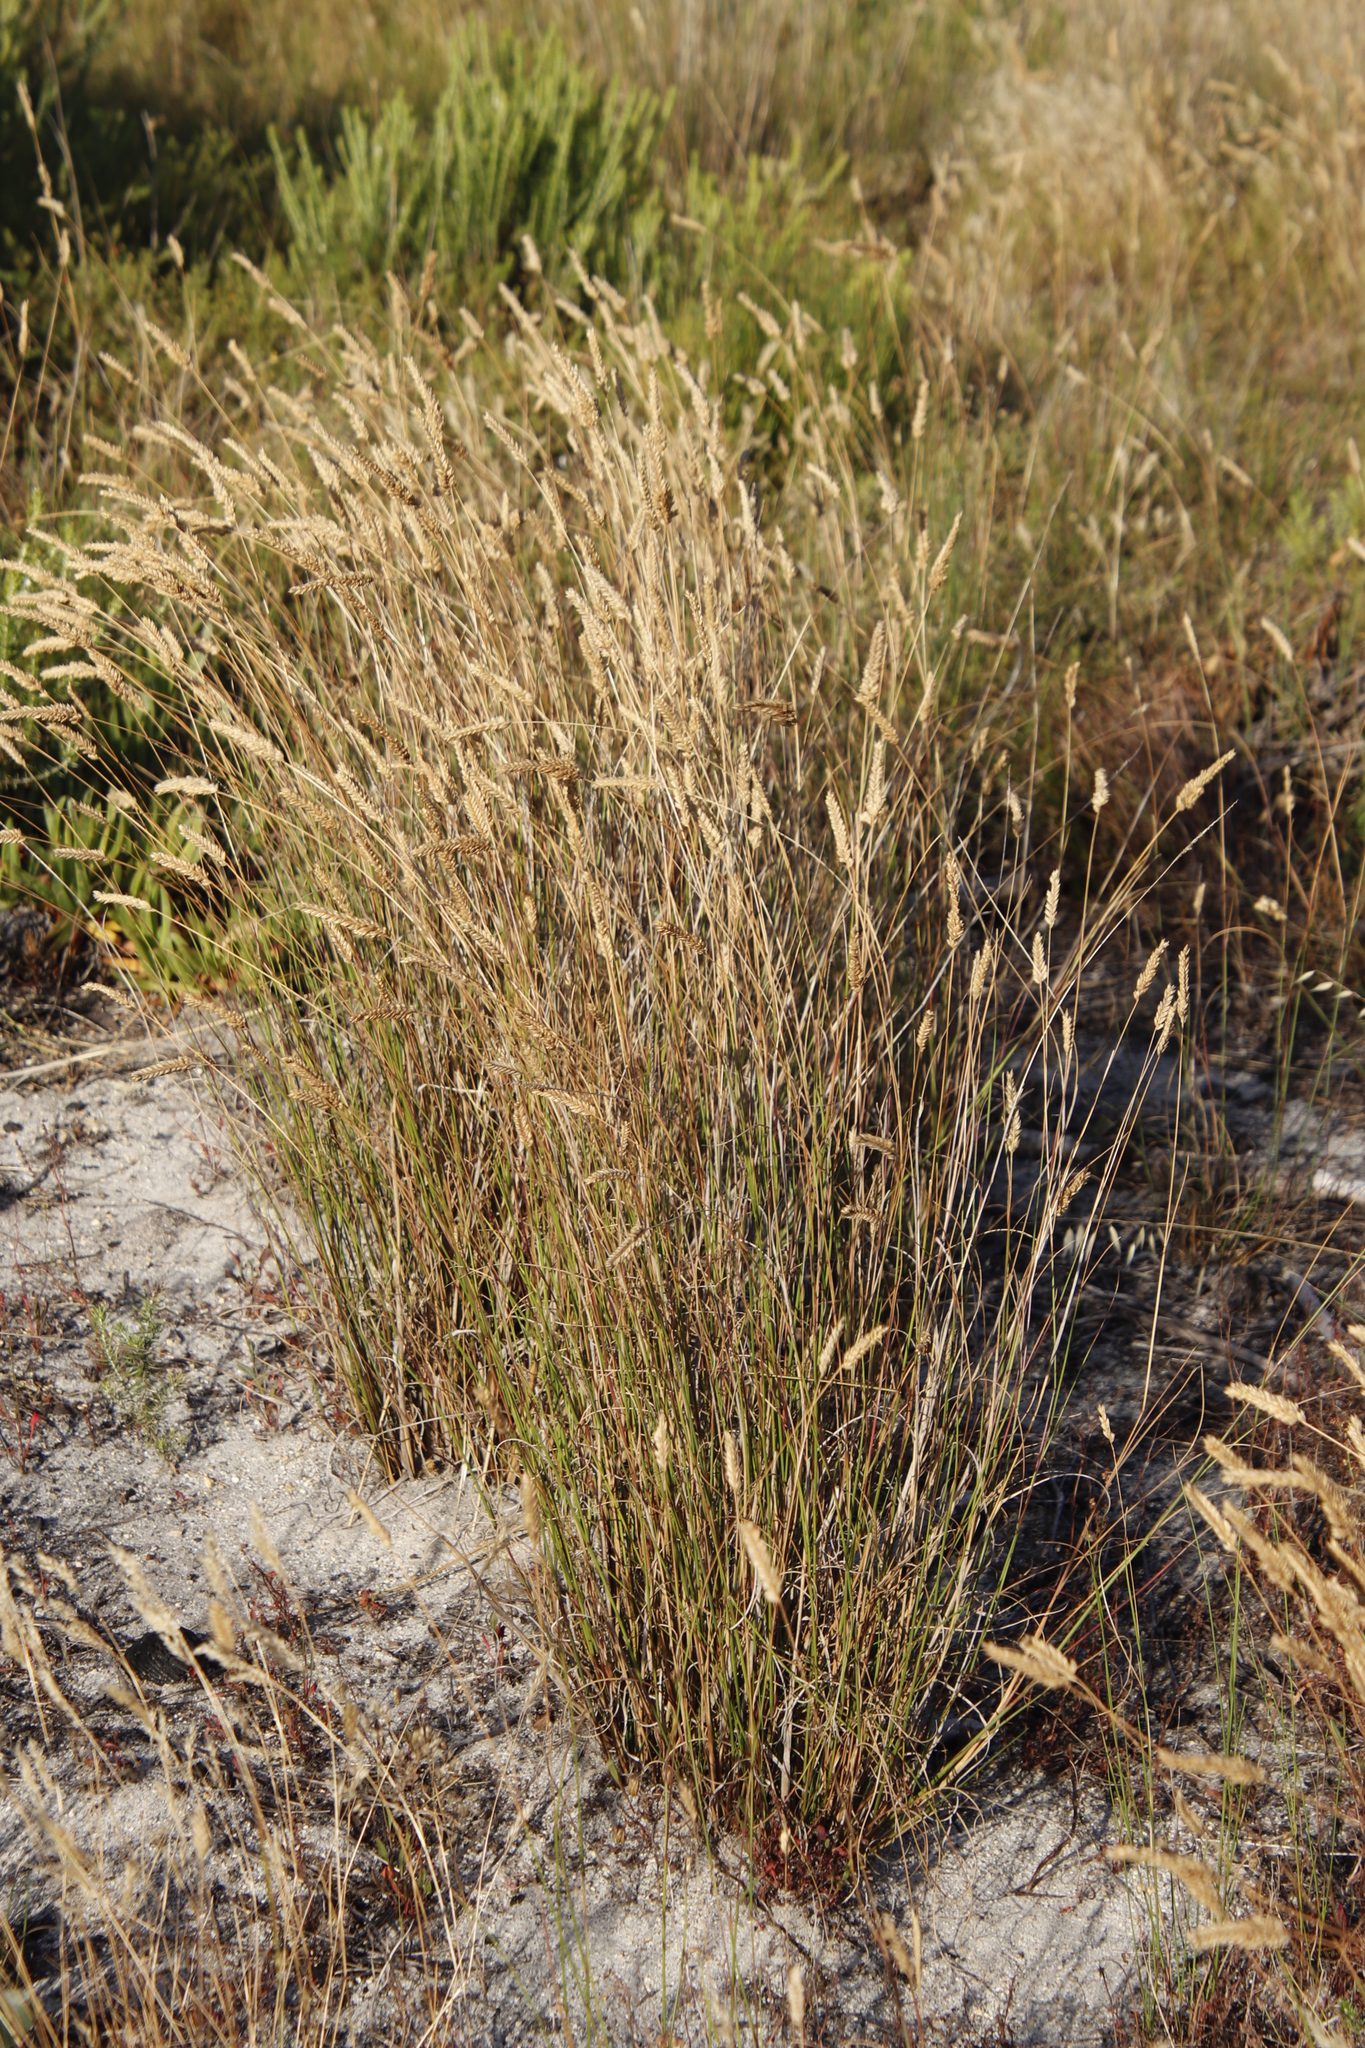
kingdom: Plantae
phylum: Tracheophyta
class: Liliopsida
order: Poales
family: Poaceae
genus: Tribolium
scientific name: Tribolium uniolae
